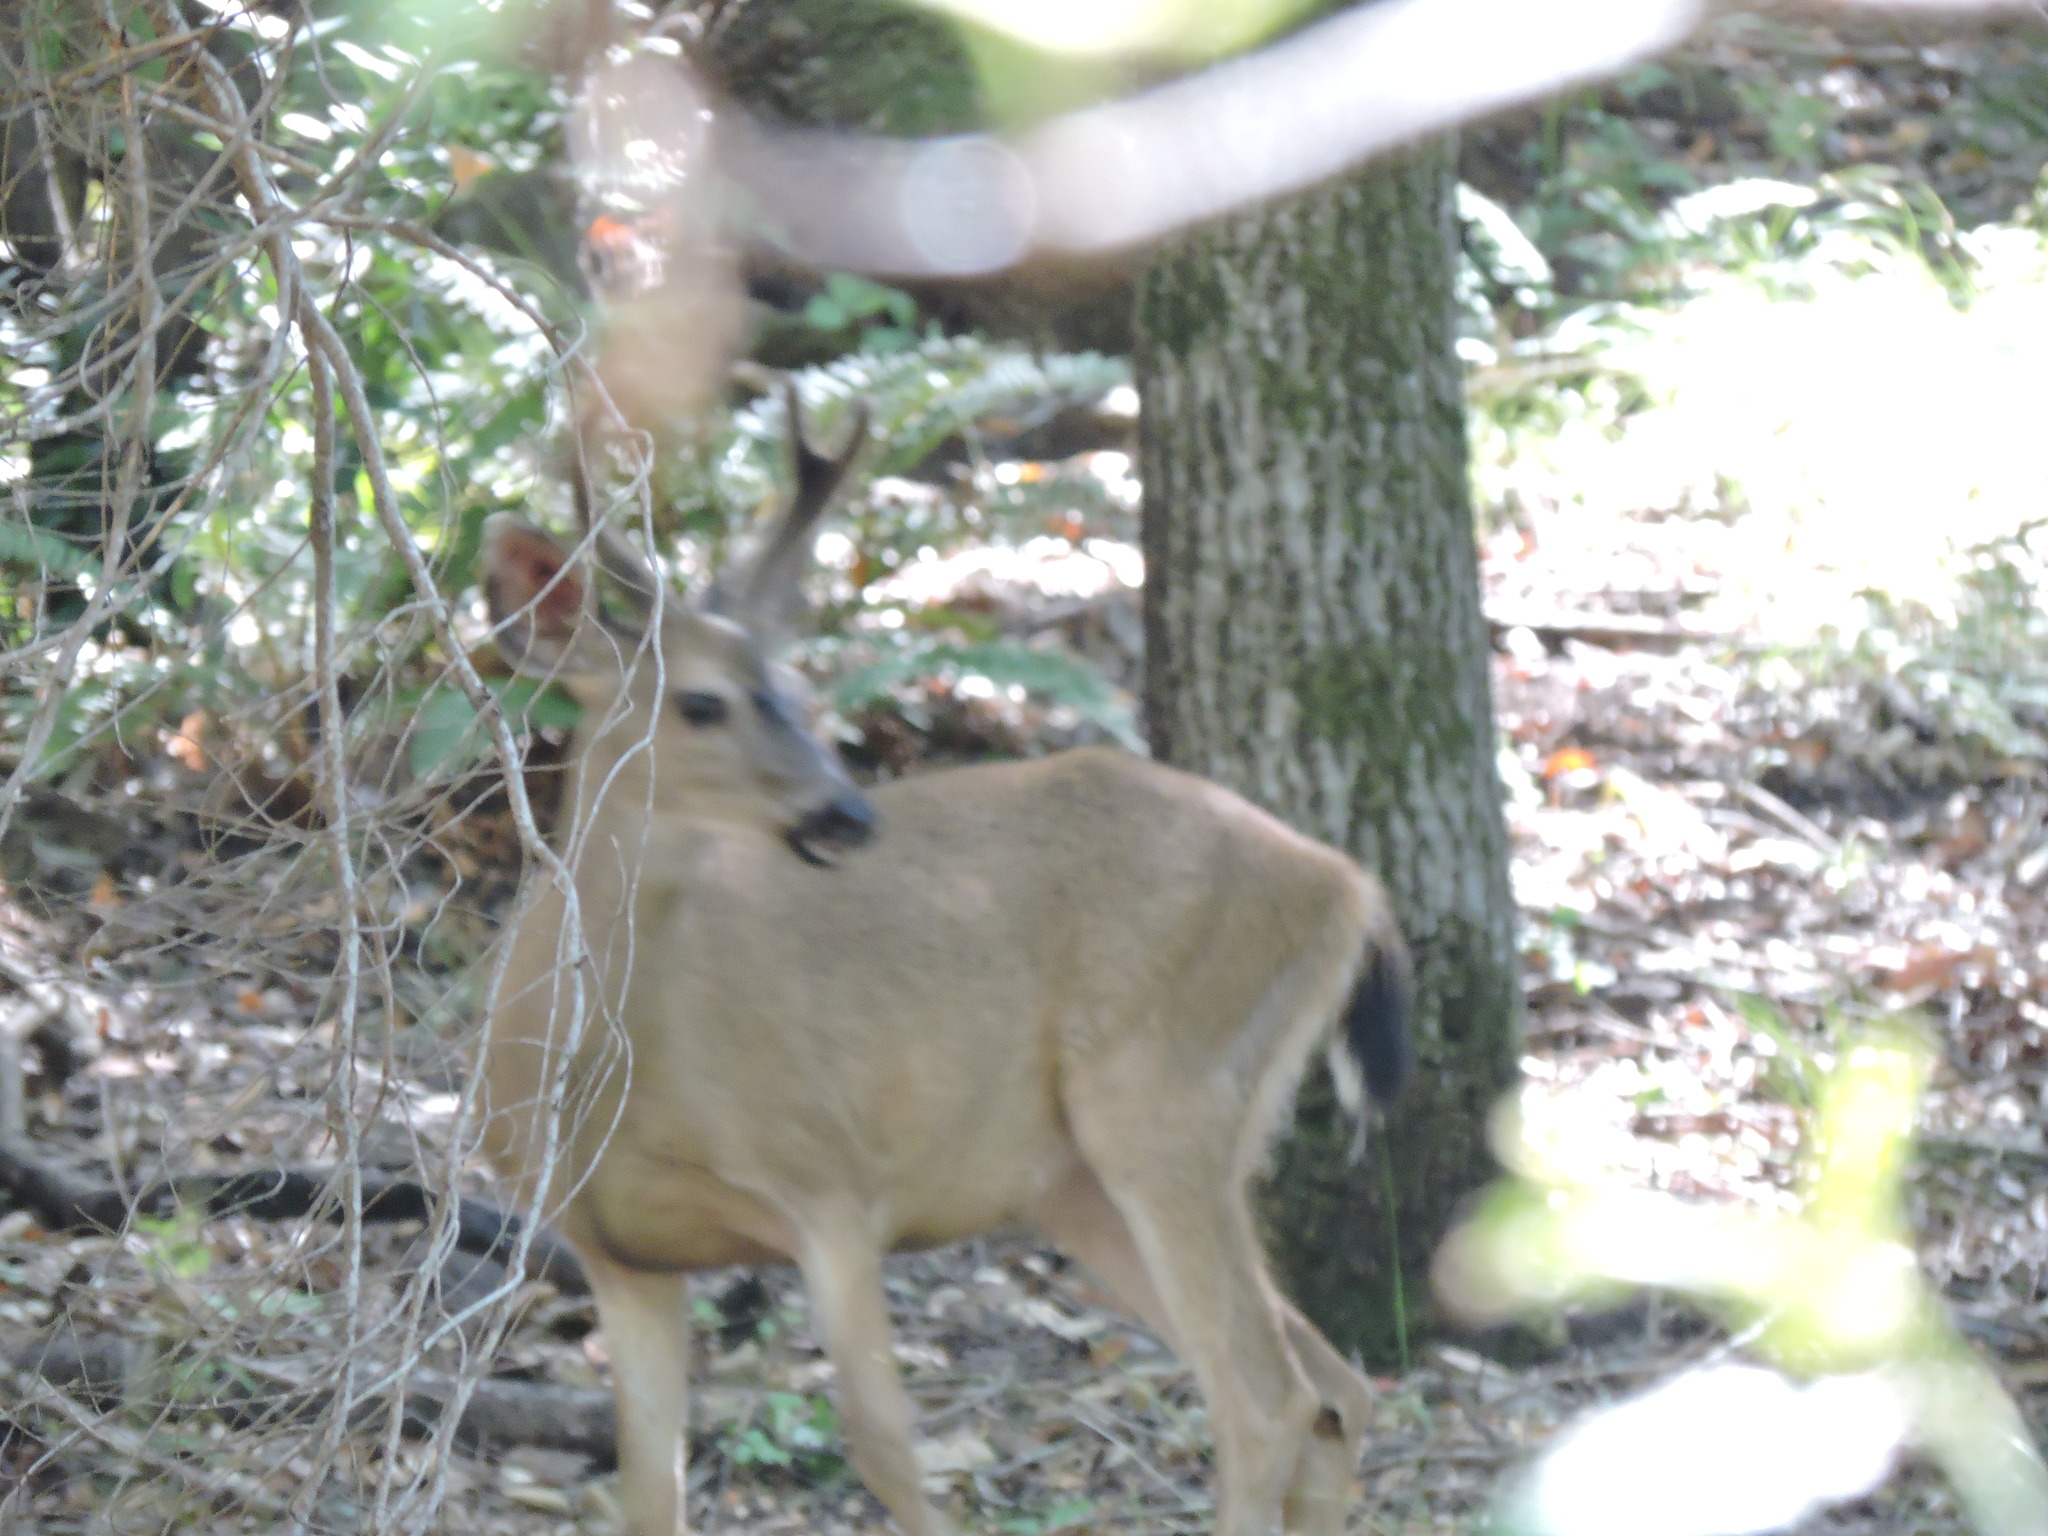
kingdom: Animalia
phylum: Chordata
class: Mammalia
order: Artiodactyla
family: Cervidae
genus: Odocoileus
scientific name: Odocoileus hemionus
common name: Mule deer
